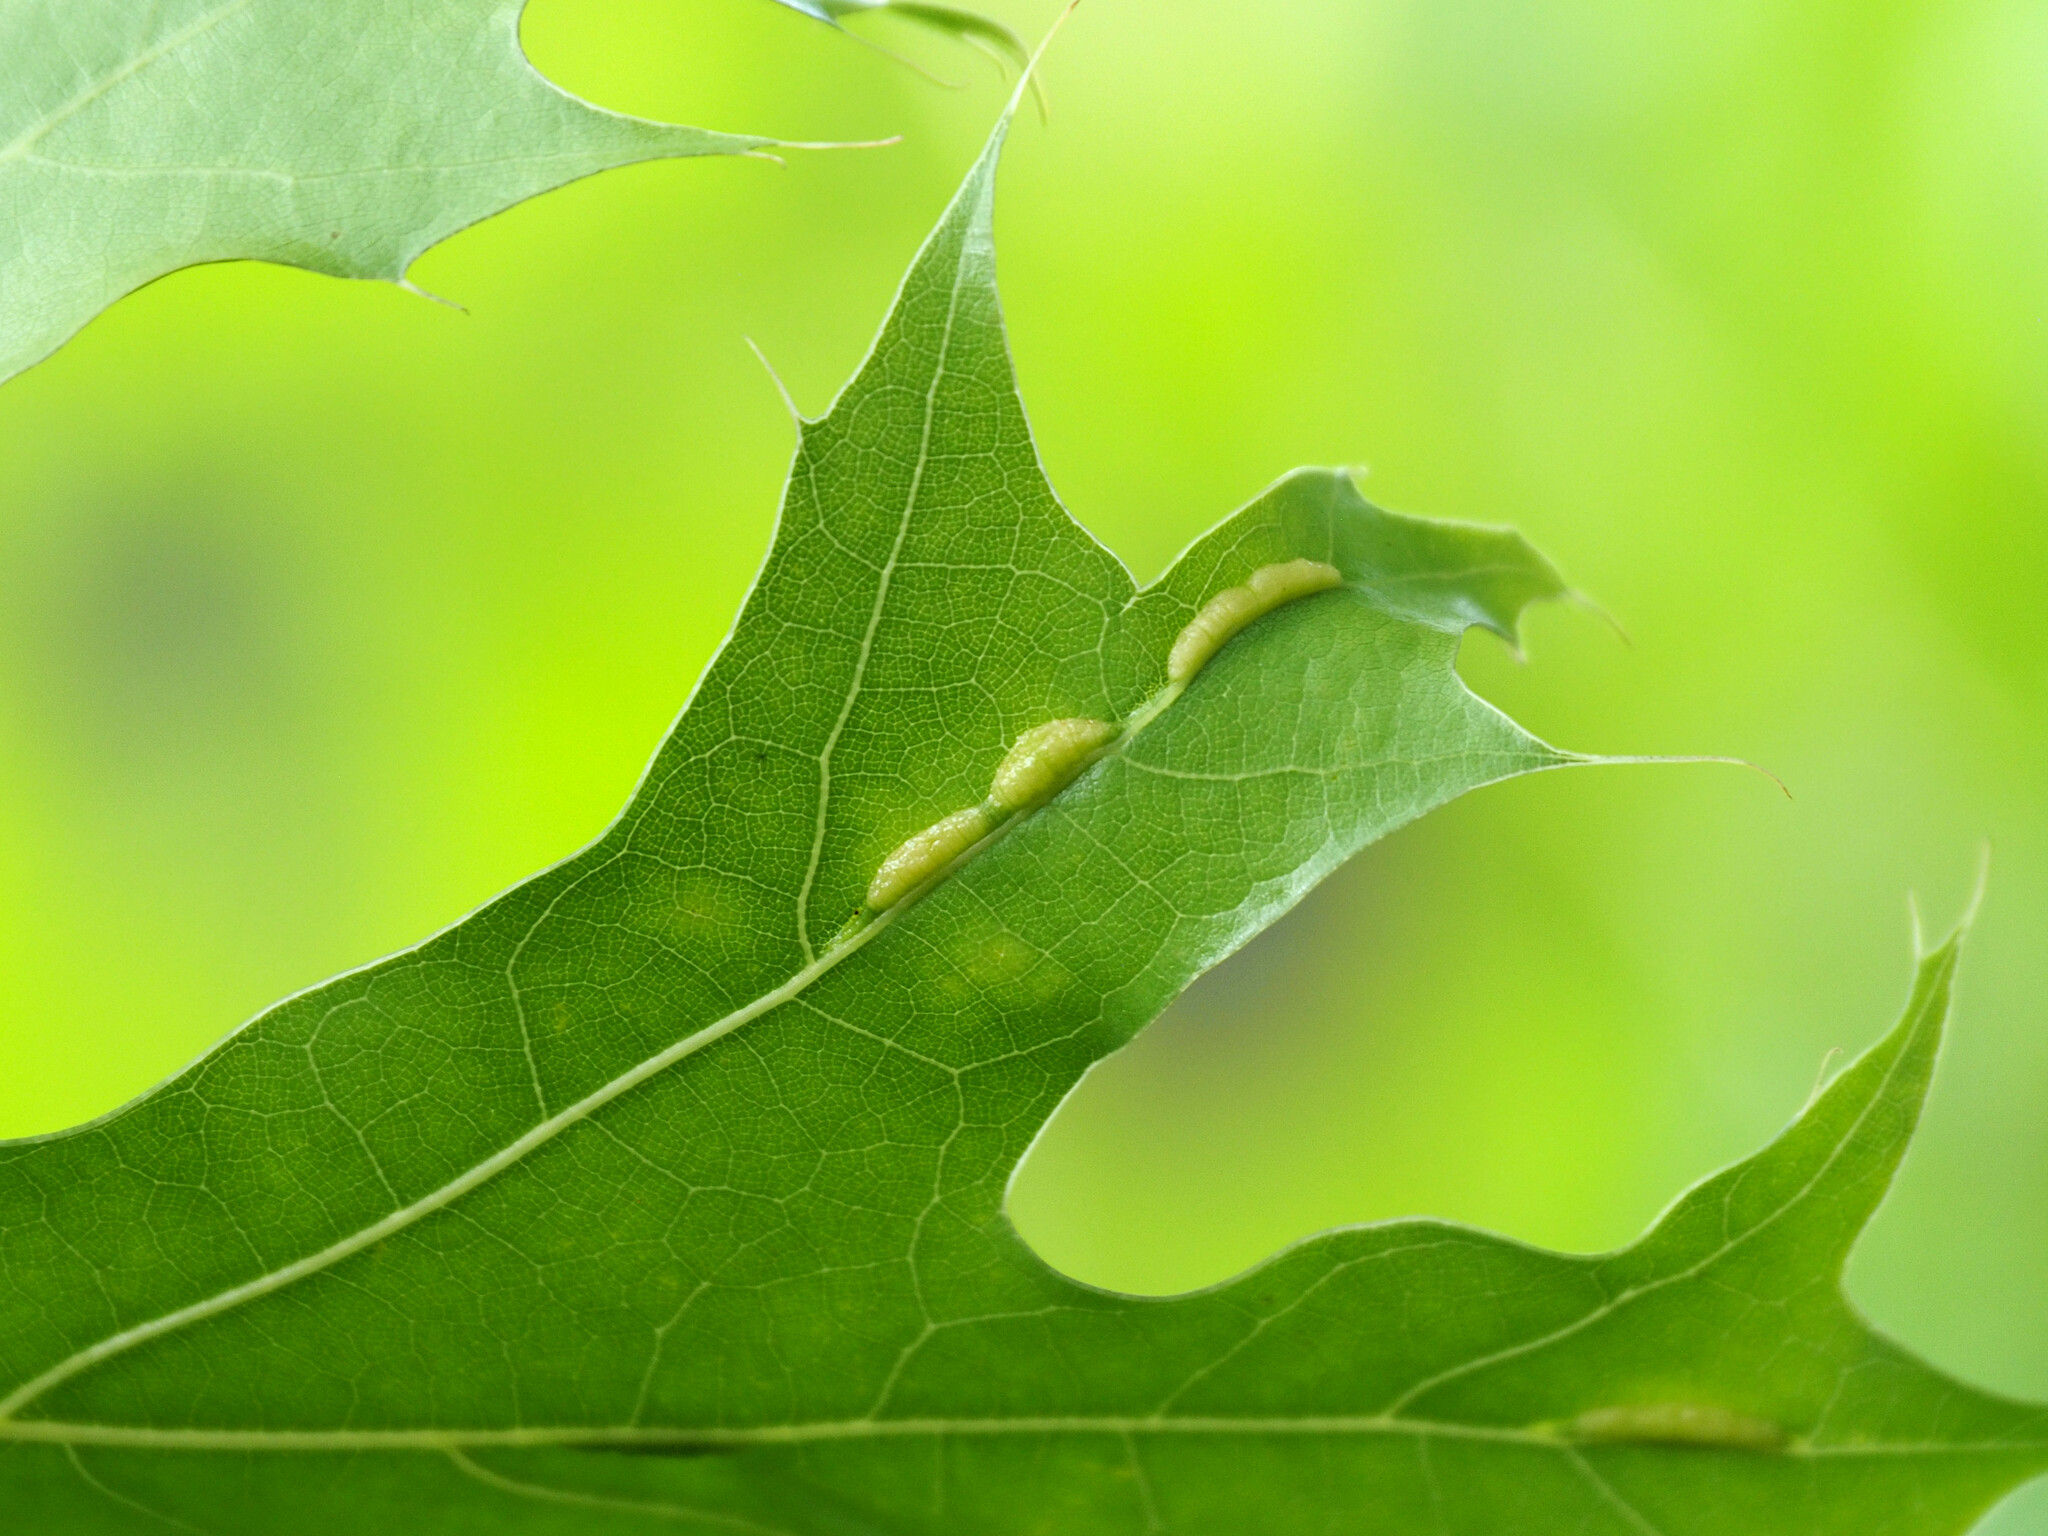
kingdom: Animalia
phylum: Arthropoda
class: Insecta
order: Diptera
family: Cecidomyiidae
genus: Macrodiplosis
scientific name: Macrodiplosis q-orucum
